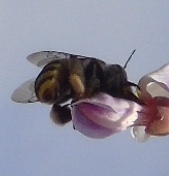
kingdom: Animalia
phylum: Arthropoda
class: Insecta
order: Hymenoptera
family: Apidae
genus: Centris
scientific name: Centris
